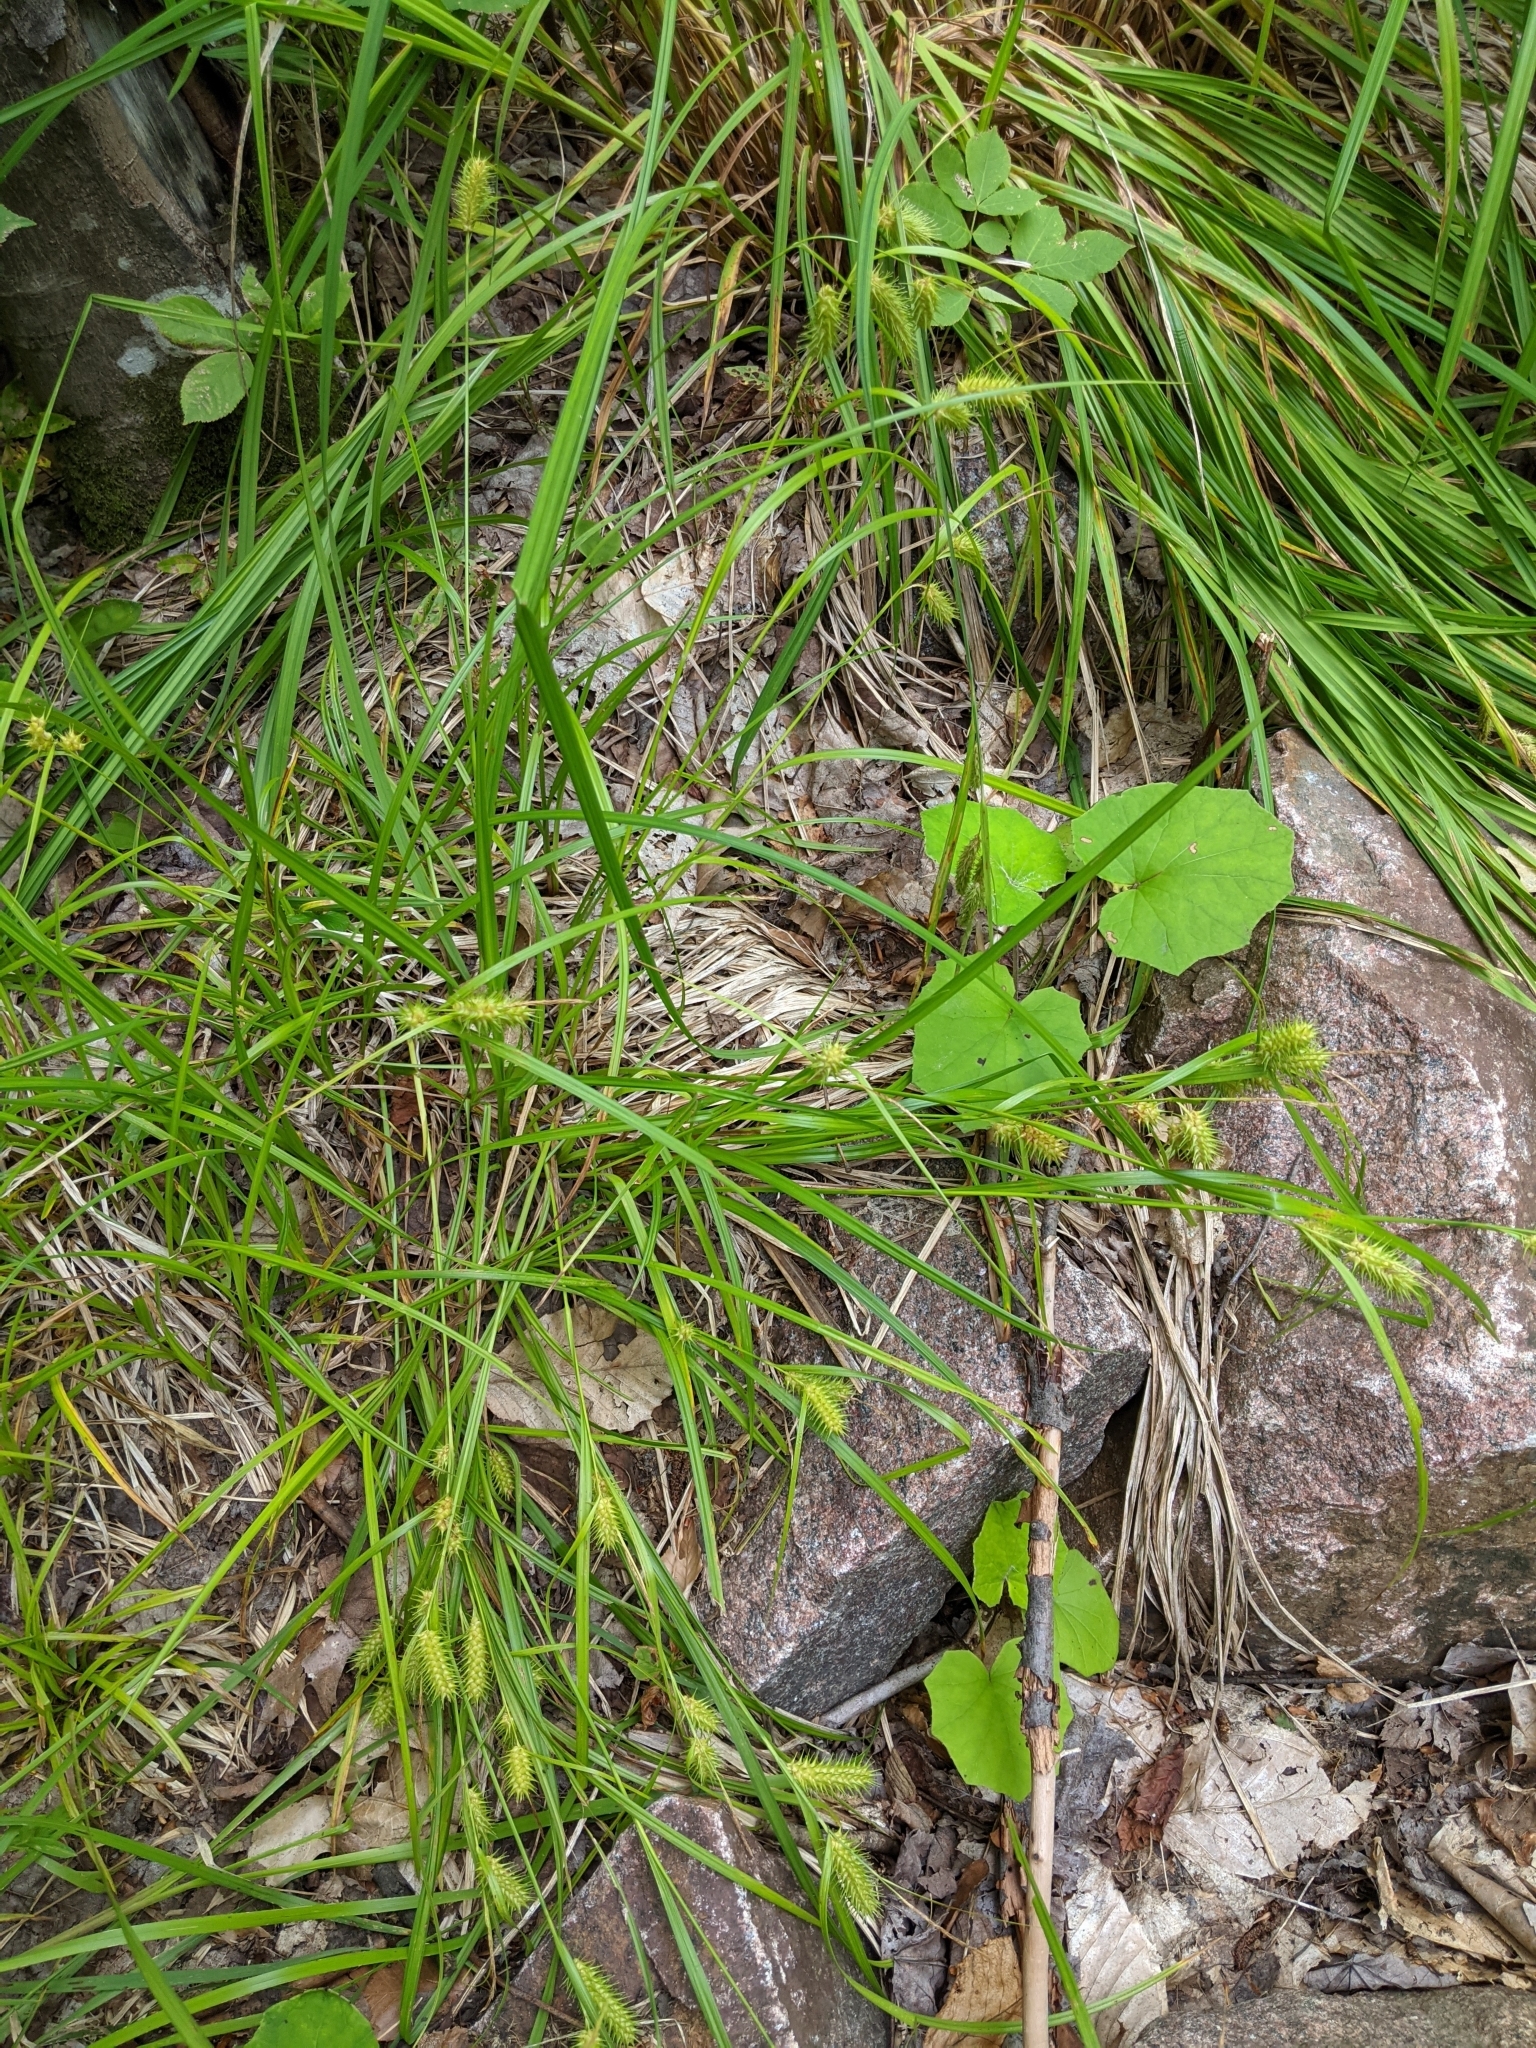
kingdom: Plantae
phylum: Tracheophyta
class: Liliopsida
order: Poales
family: Cyperaceae
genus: Carex
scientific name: Carex lupulina
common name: Hop sedge
